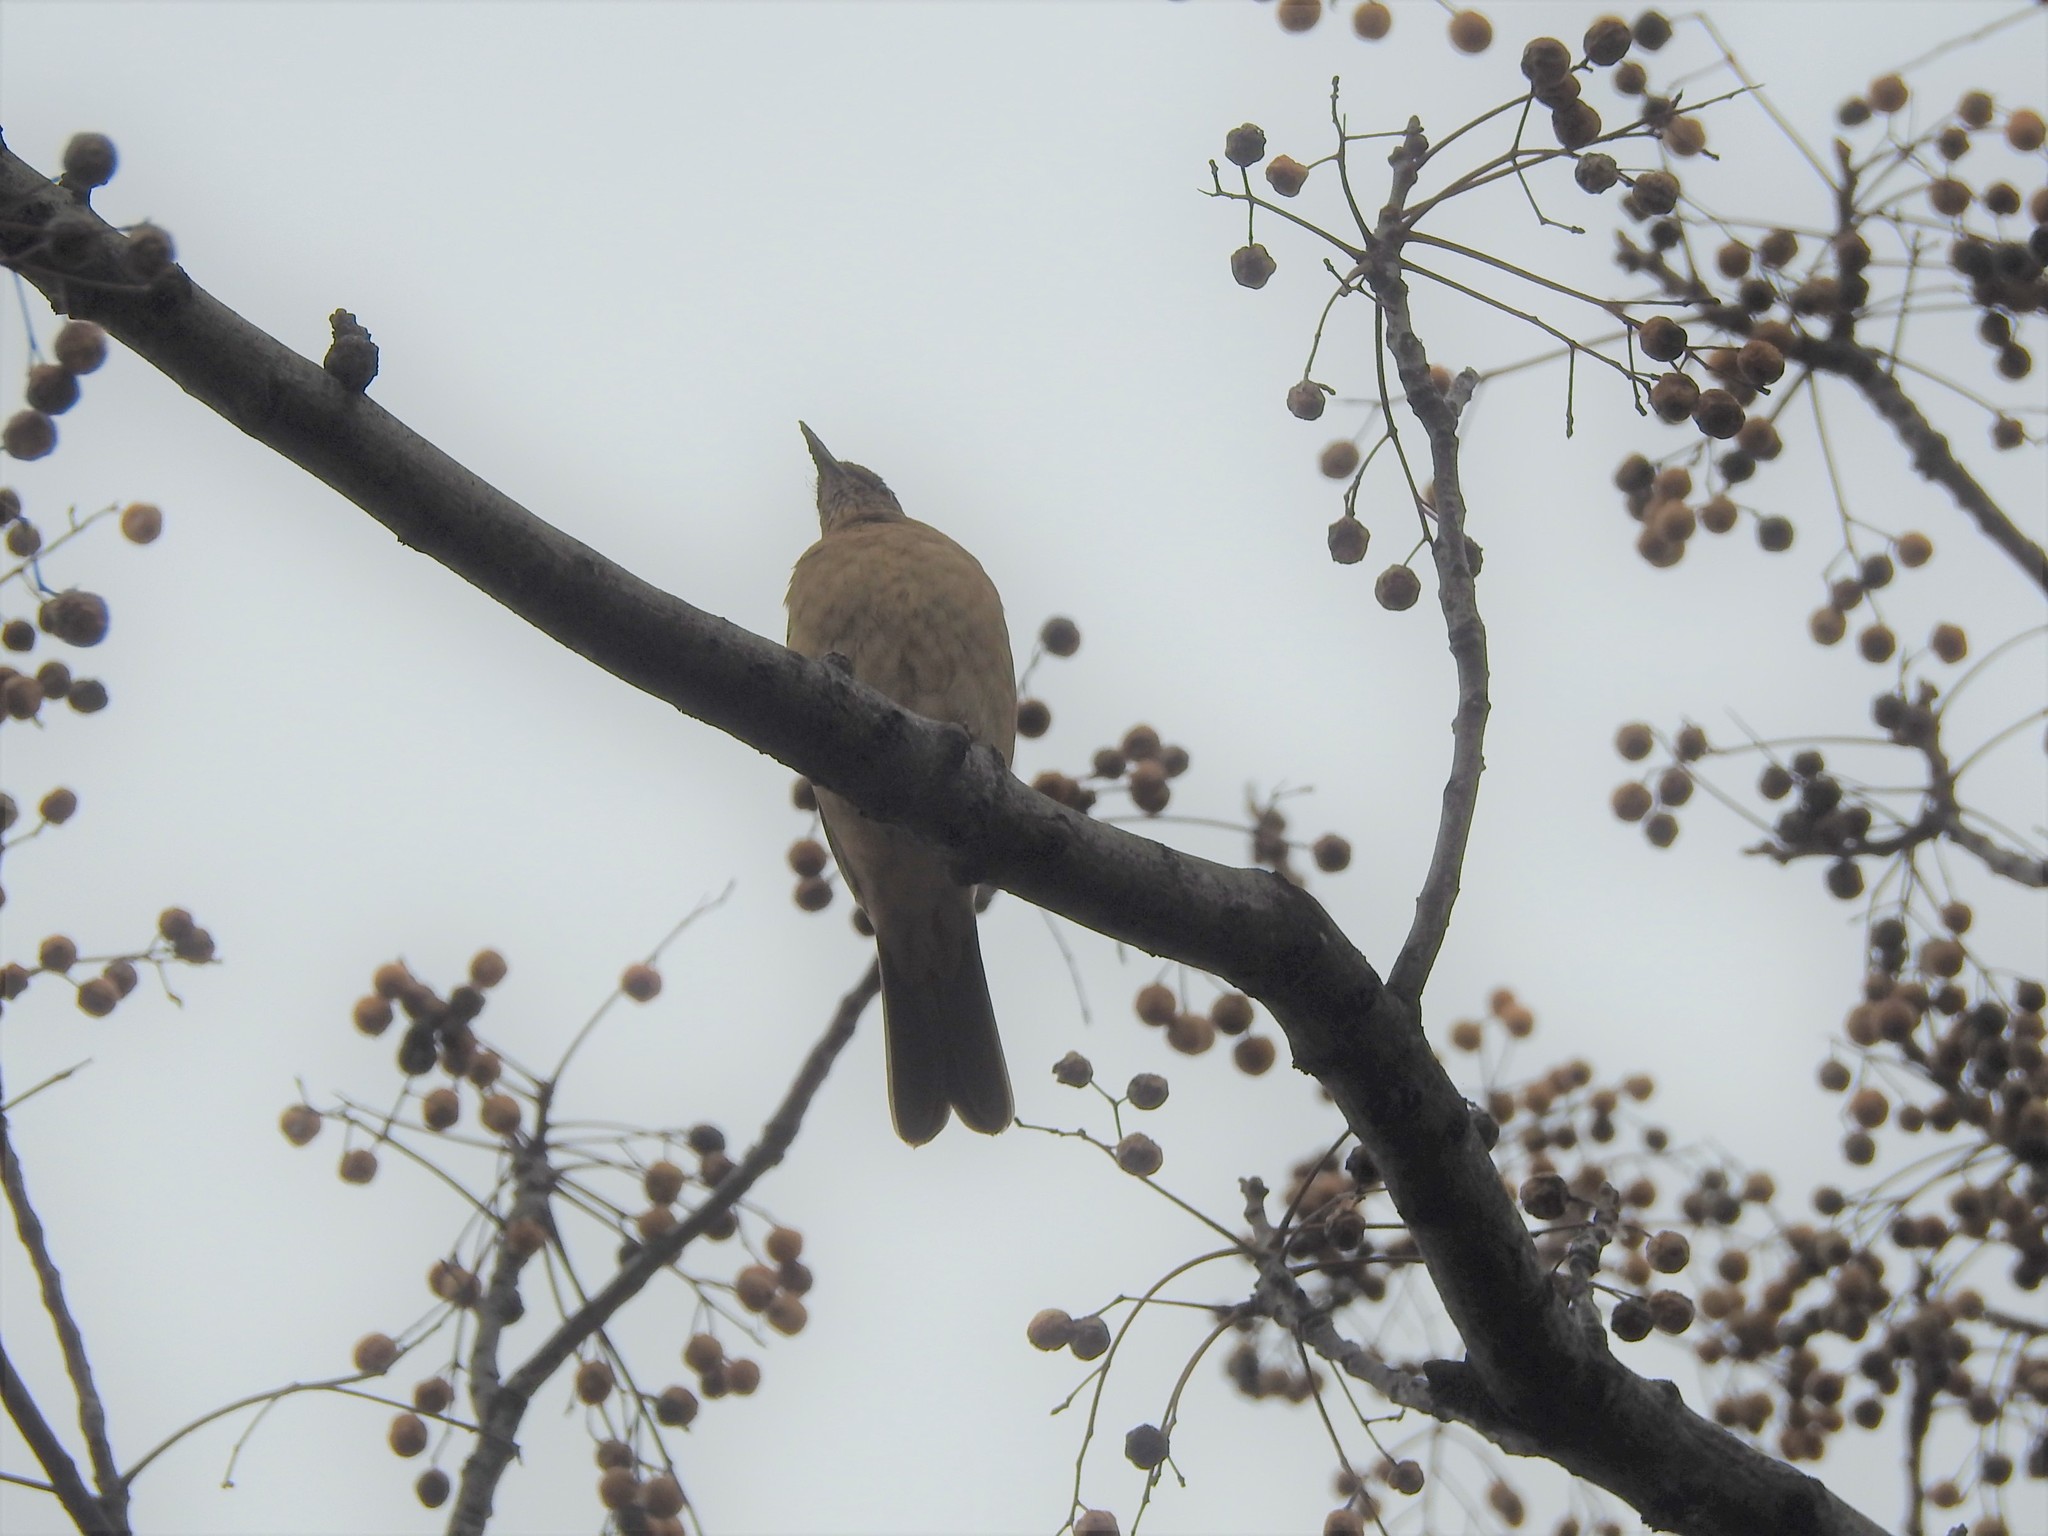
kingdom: Animalia
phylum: Chordata
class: Aves
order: Passeriformes
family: Turdidae
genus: Turdus
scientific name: Turdus grayi
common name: Clay-colored thrush
